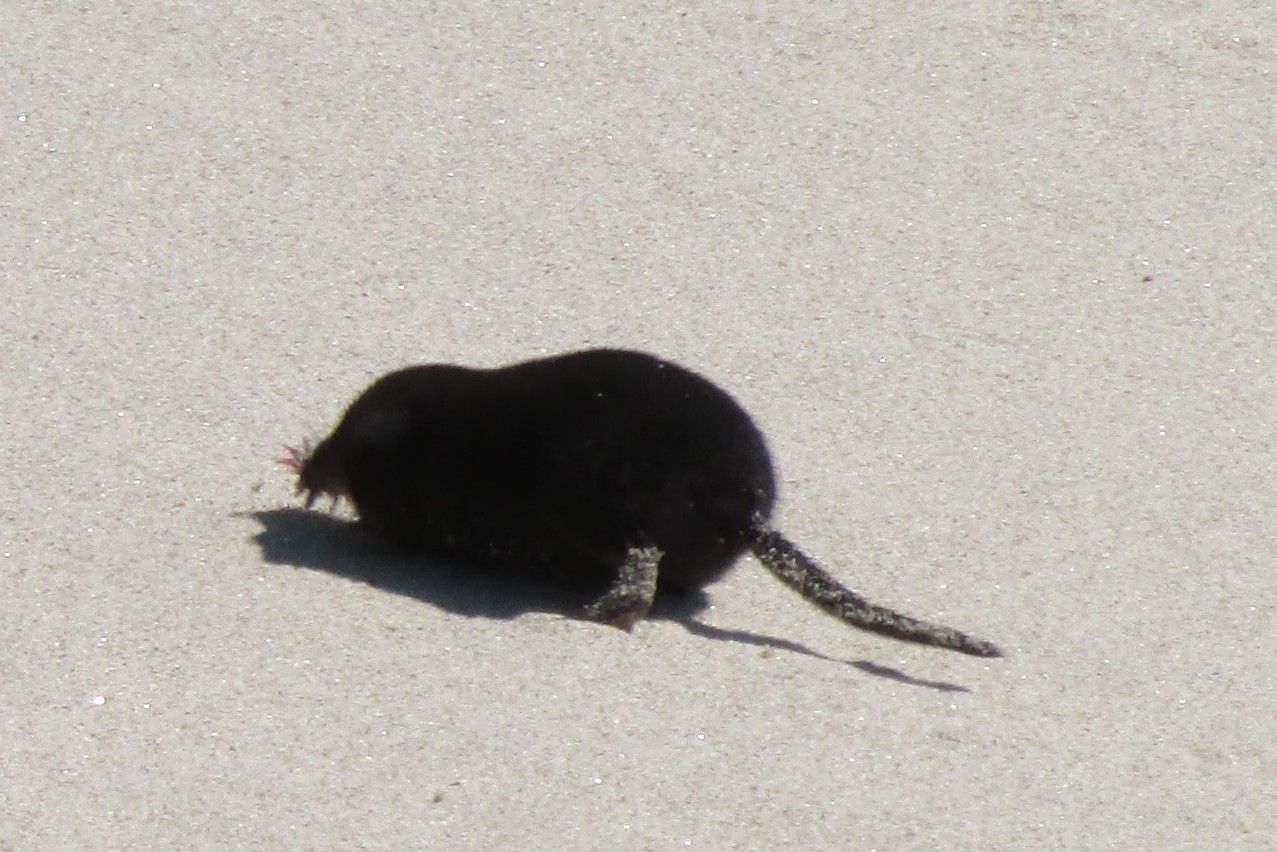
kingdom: Animalia
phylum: Chordata
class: Mammalia
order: Soricomorpha
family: Talpidae
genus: Condylura
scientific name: Condylura cristata
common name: Star-nosed mole
